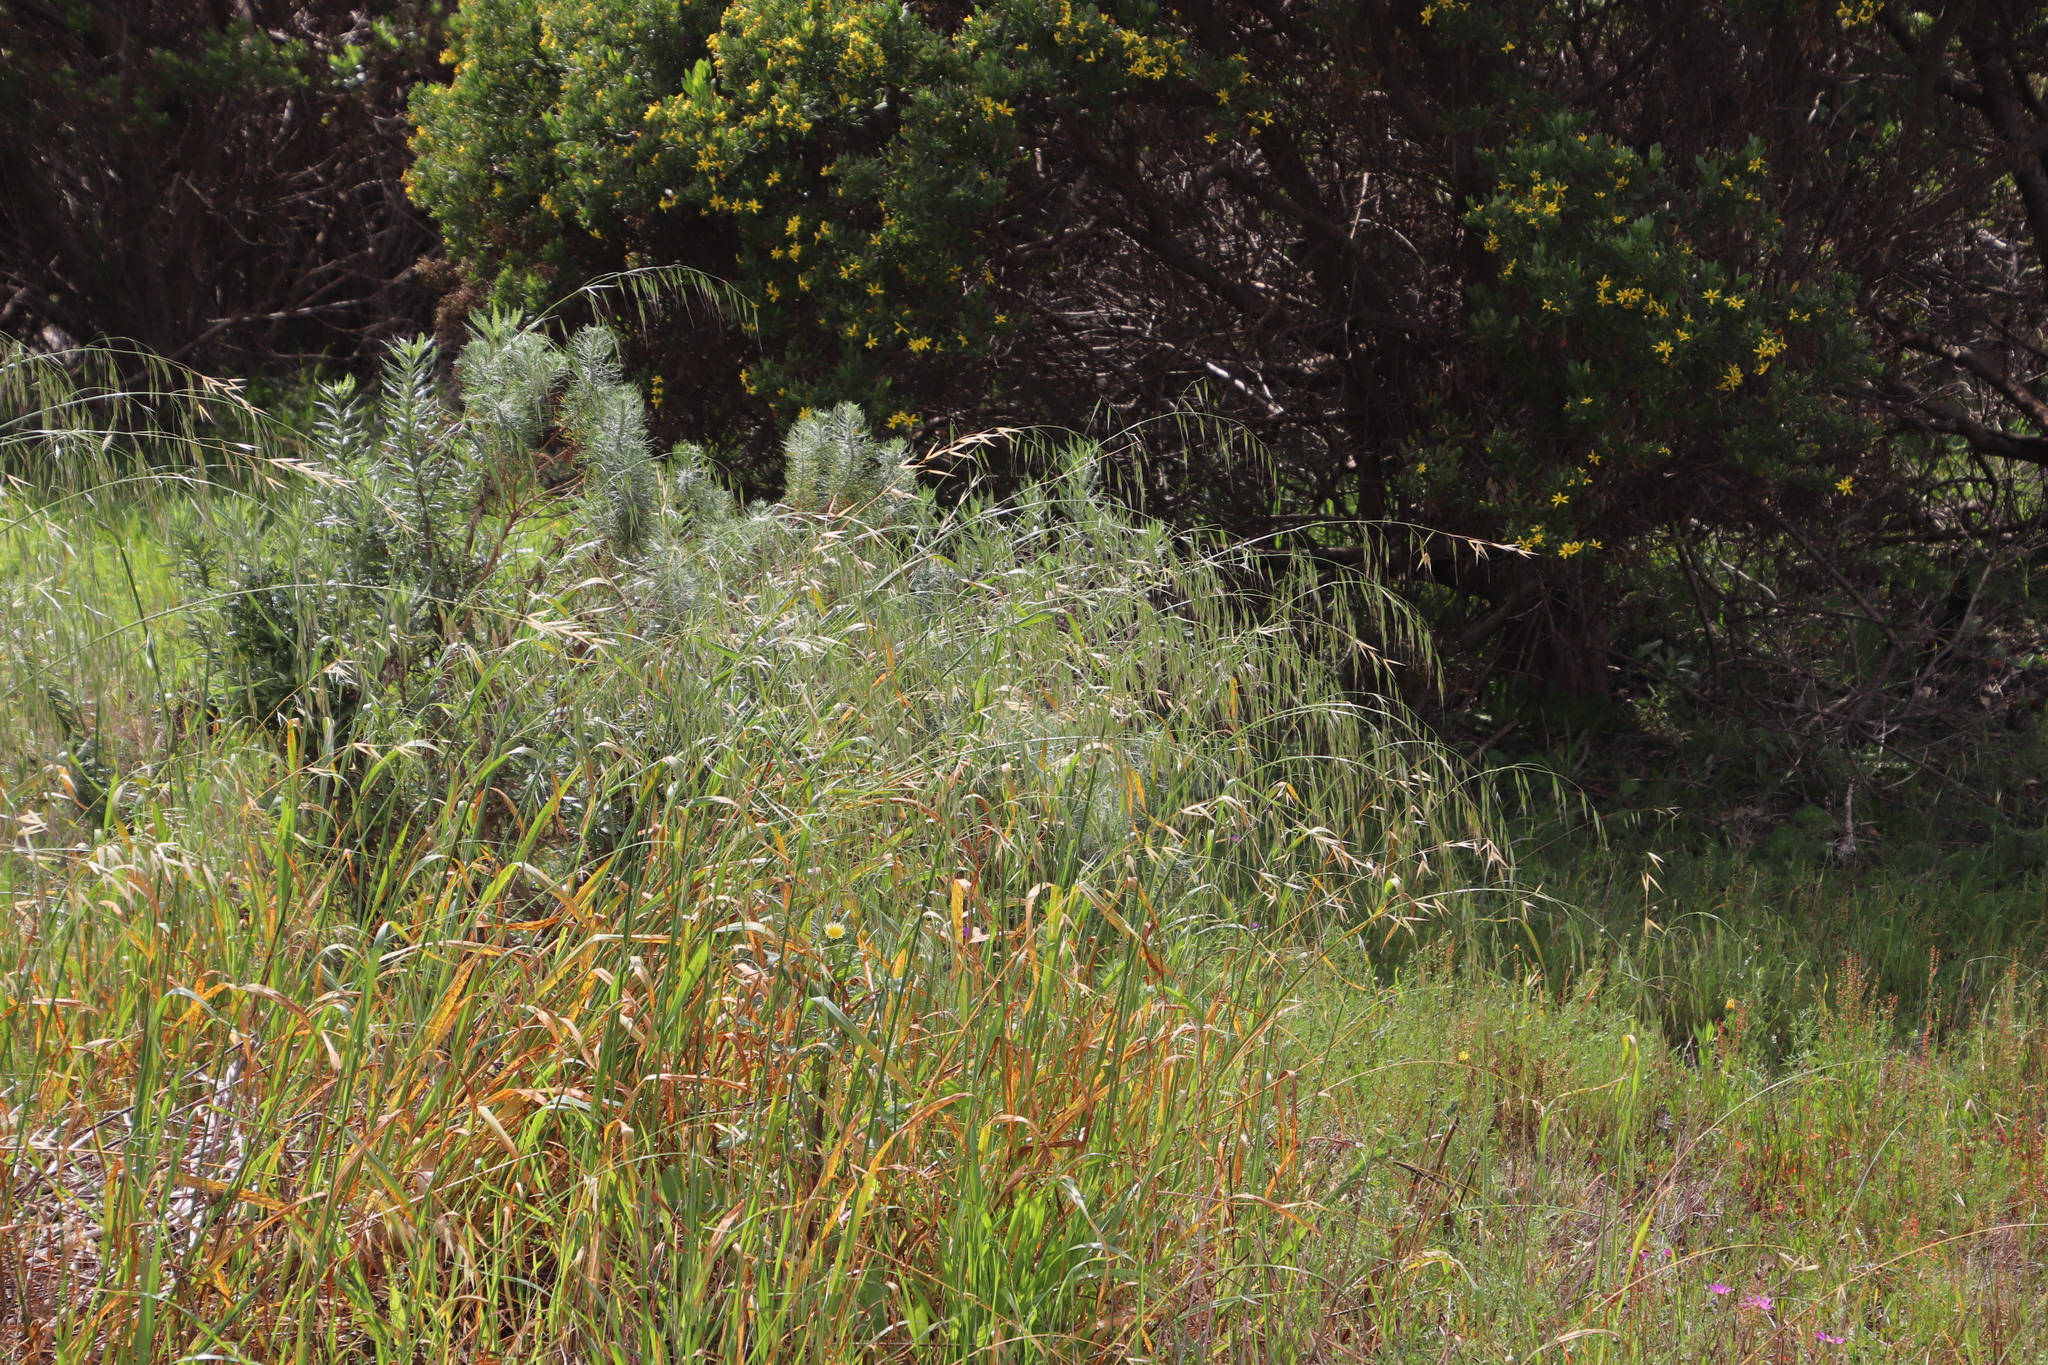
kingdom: Plantae
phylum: Tracheophyta
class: Liliopsida
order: Poales
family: Poaceae
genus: Avena
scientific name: Avena fatua
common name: Wild oat
